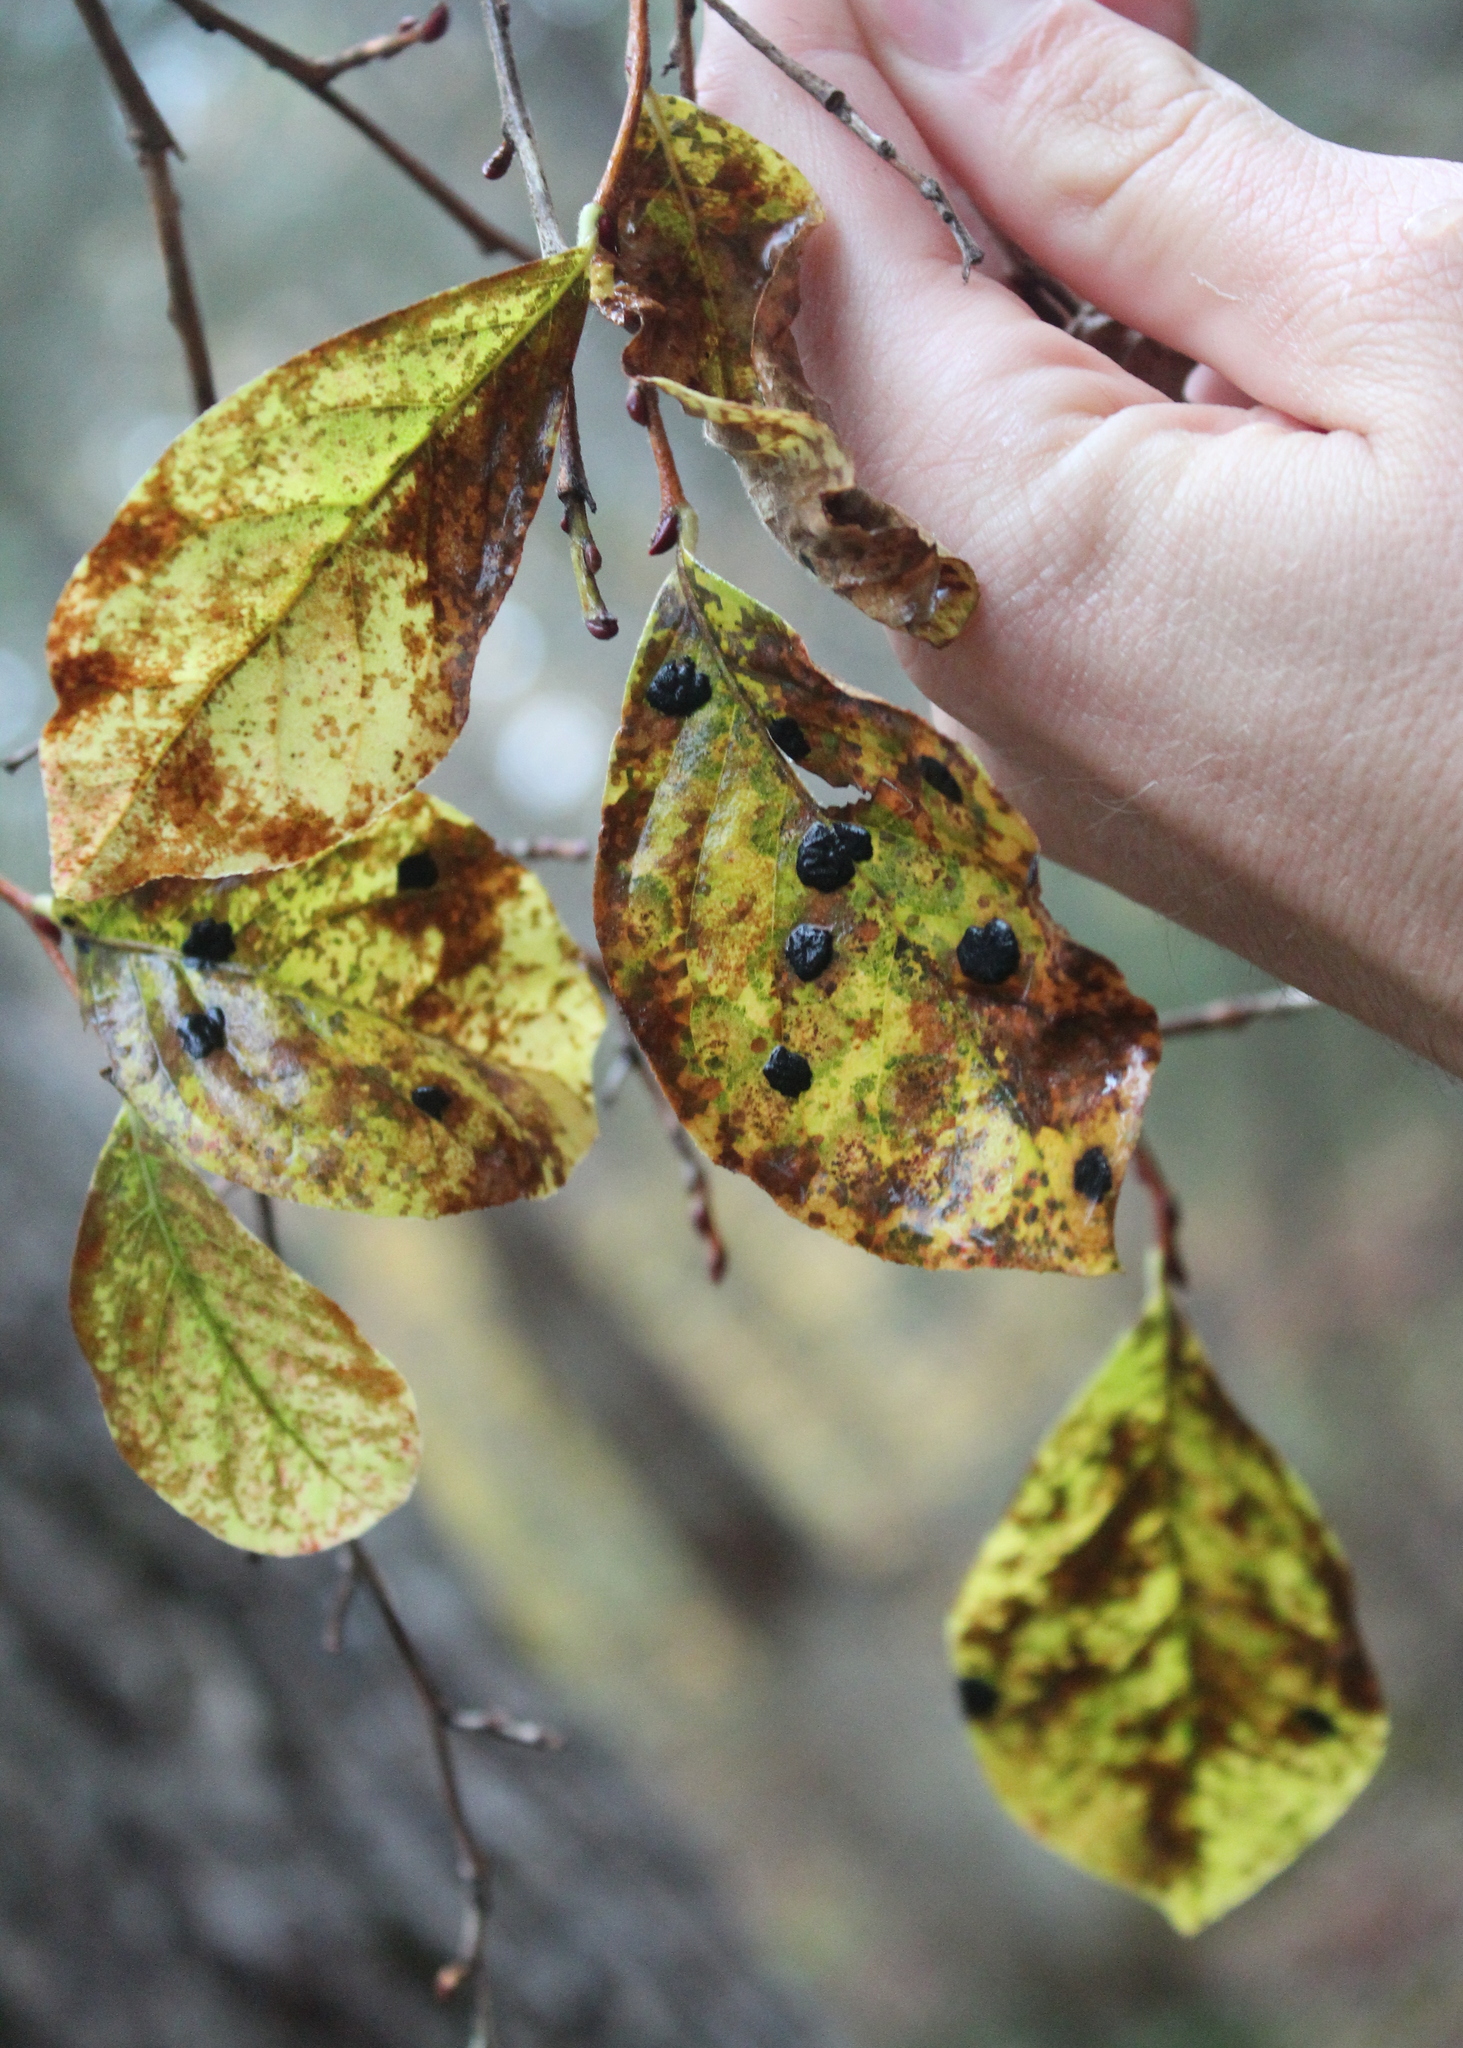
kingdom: Plantae
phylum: Tracheophyta
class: Magnoliopsida
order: Ericales
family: Ericaceae
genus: Lyonia
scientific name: Lyonia ligustrina
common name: Maleberry
